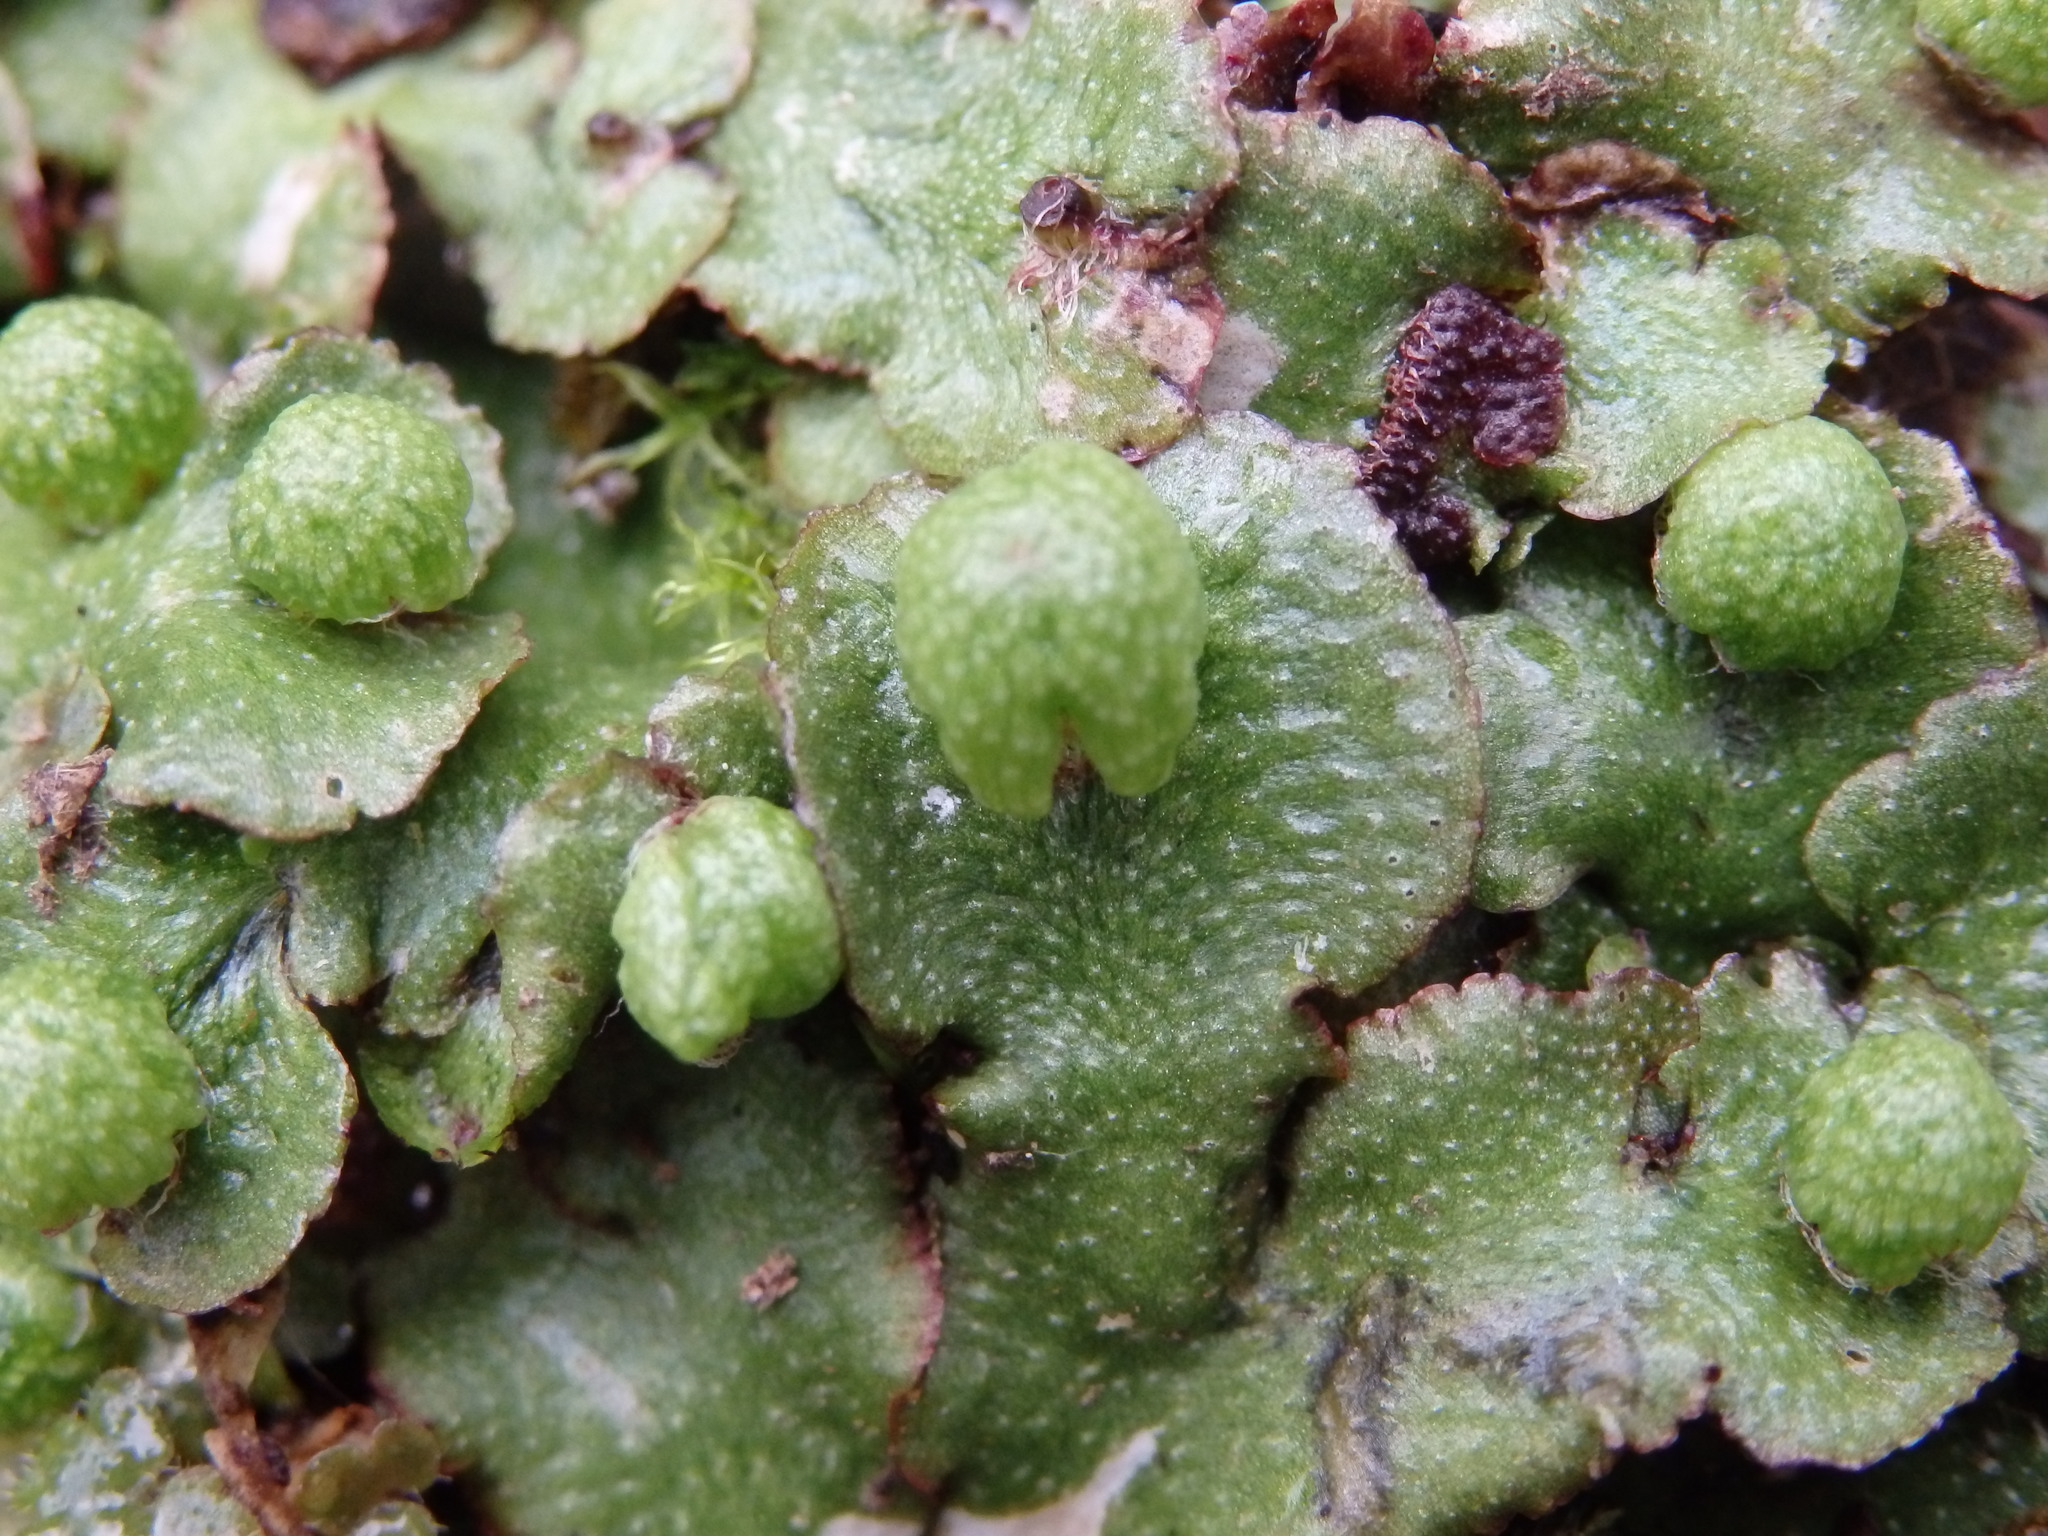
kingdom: Plantae
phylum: Marchantiophyta
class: Marchantiopsida
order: Marchantiales
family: Aytoniaceae
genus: Reboulia
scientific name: Reboulia hemisphaerica
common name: Purple-margined liverwort
